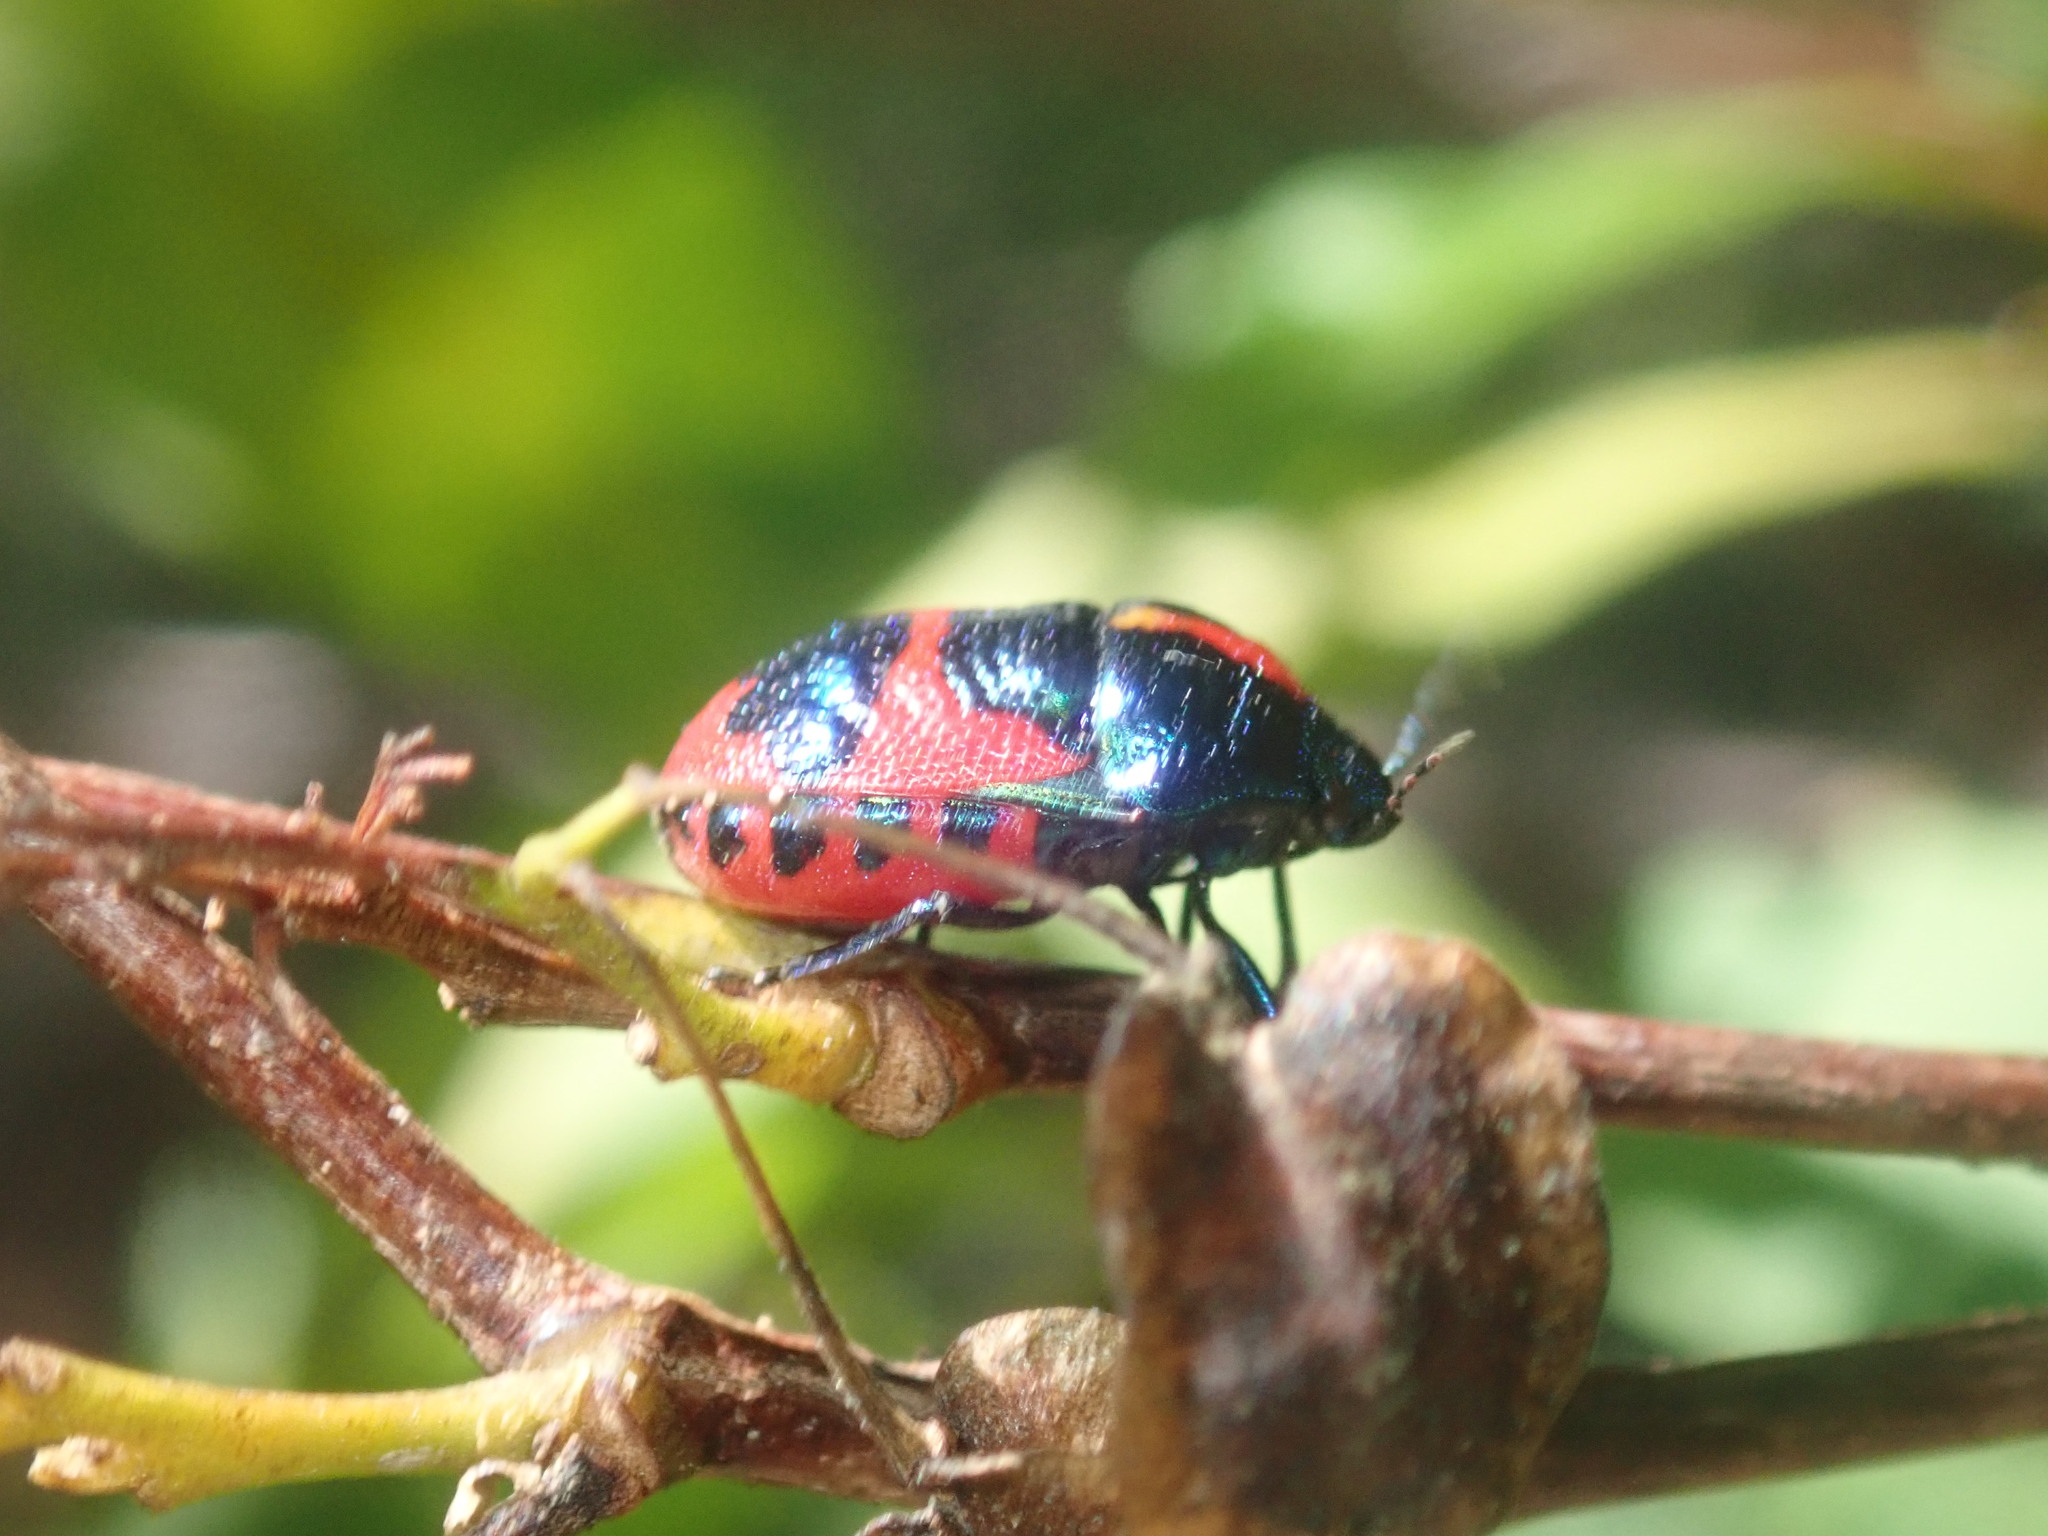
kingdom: Animalia
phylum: Arthropoda
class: Insecta
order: Hemiptera
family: Scutelleridae
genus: Choerocoris
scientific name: Choerocoris paganus
